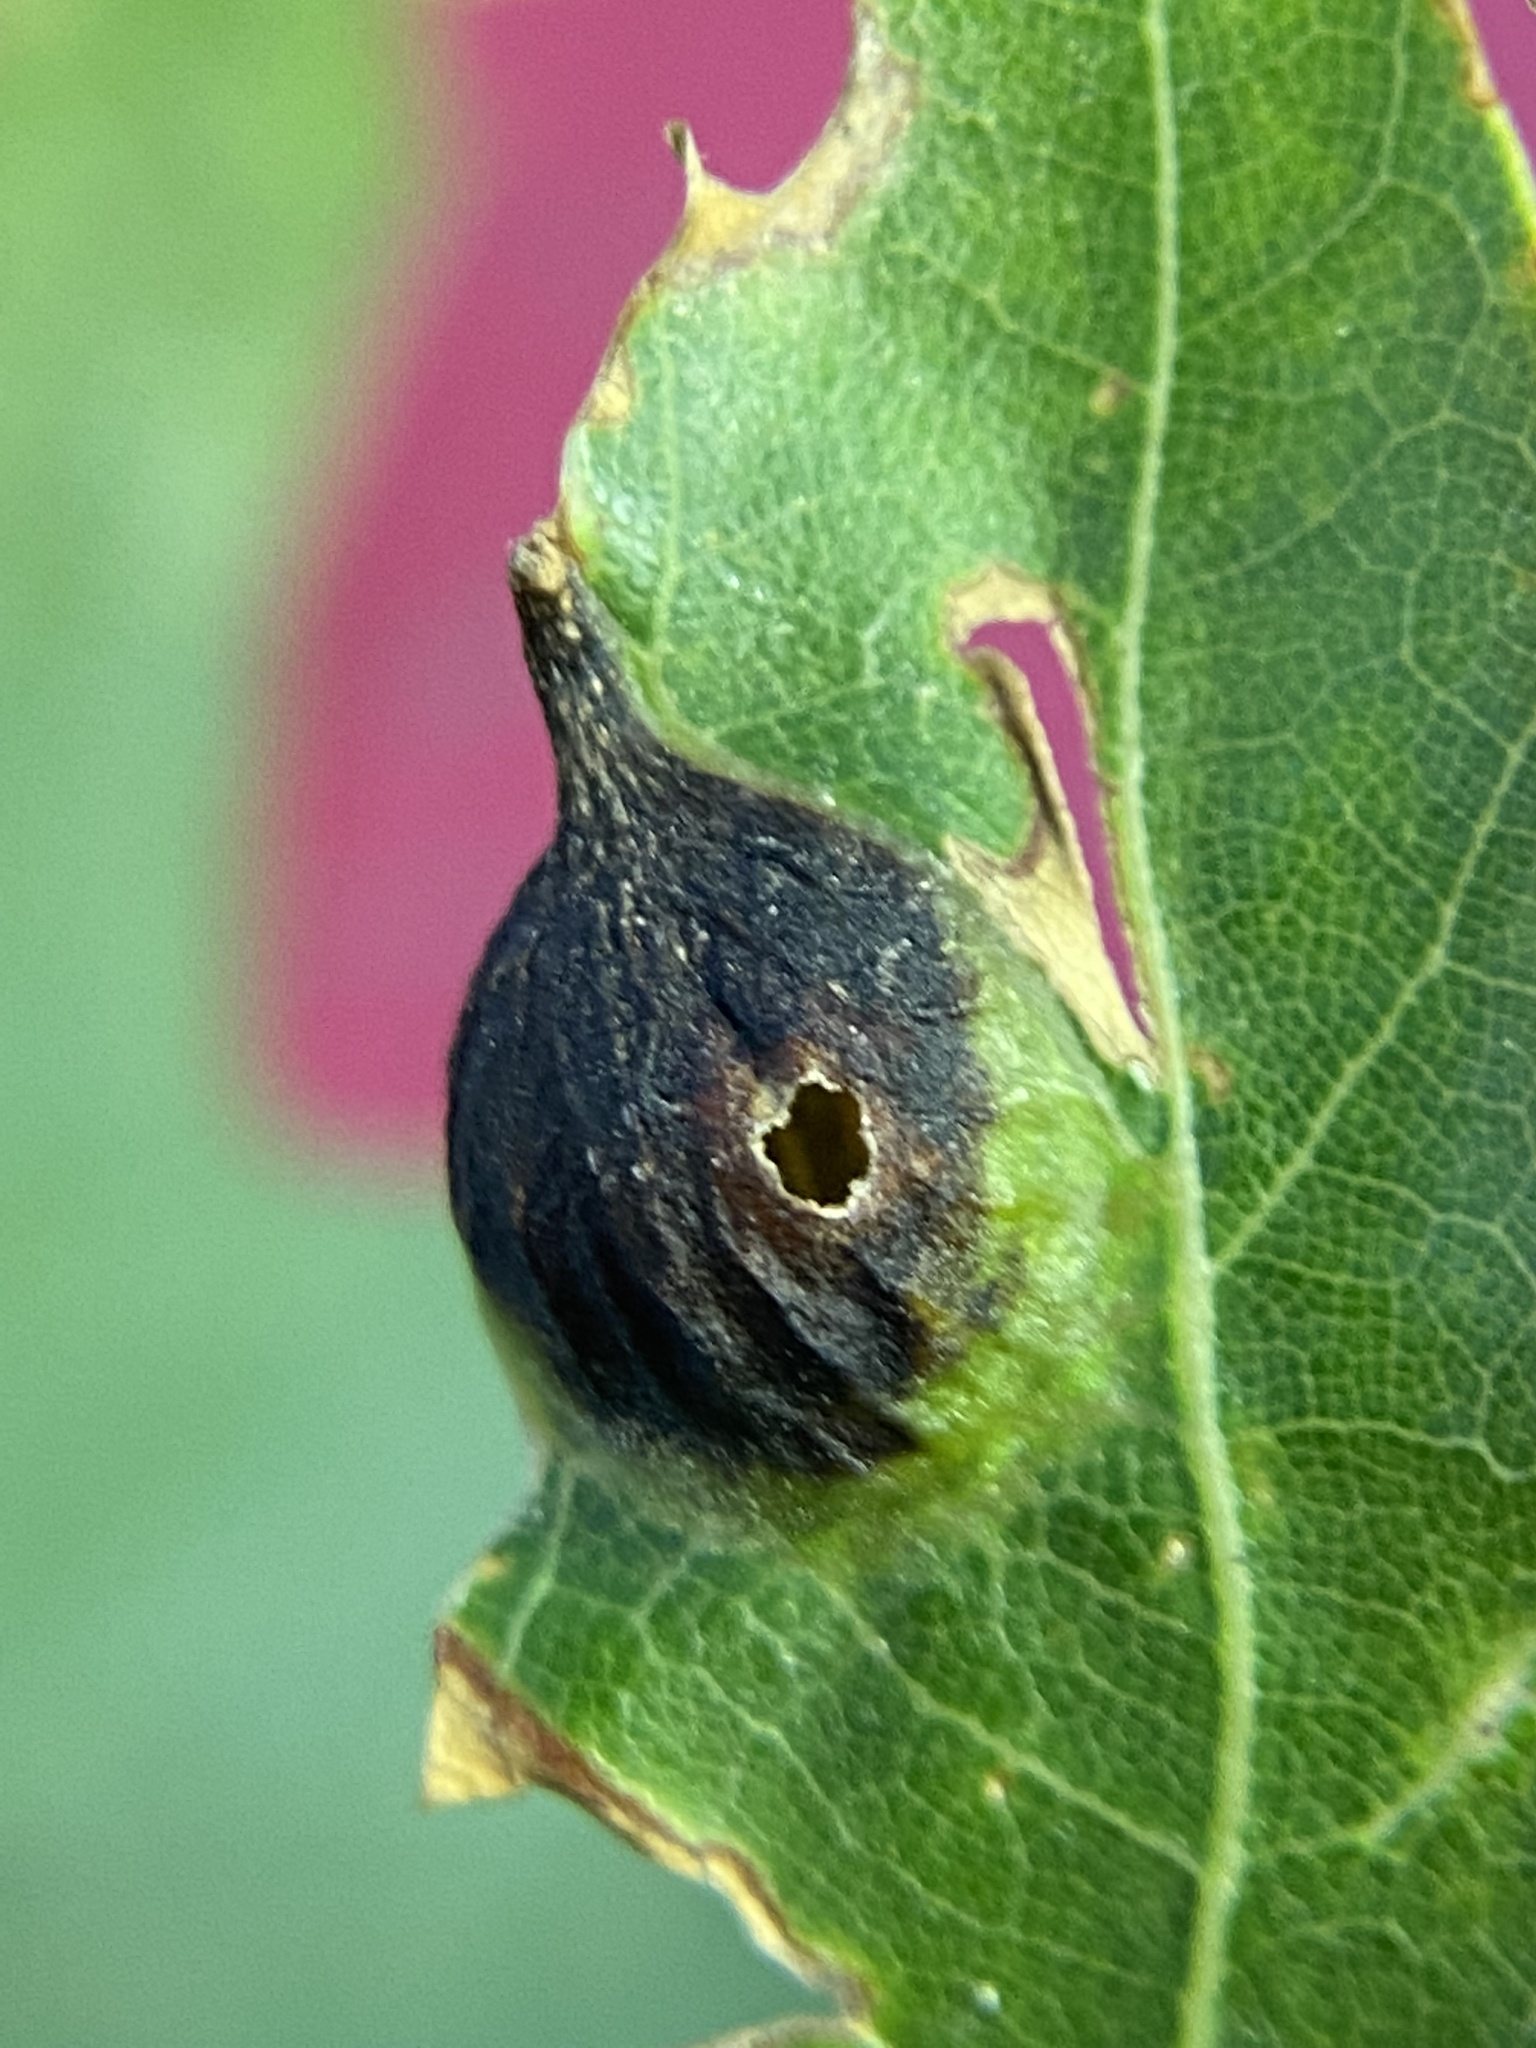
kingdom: Animalia
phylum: Arthropoda
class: Insecta
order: Hymenoptera
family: Cynipidae
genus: Dryocosmus
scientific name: Dryocosmus
